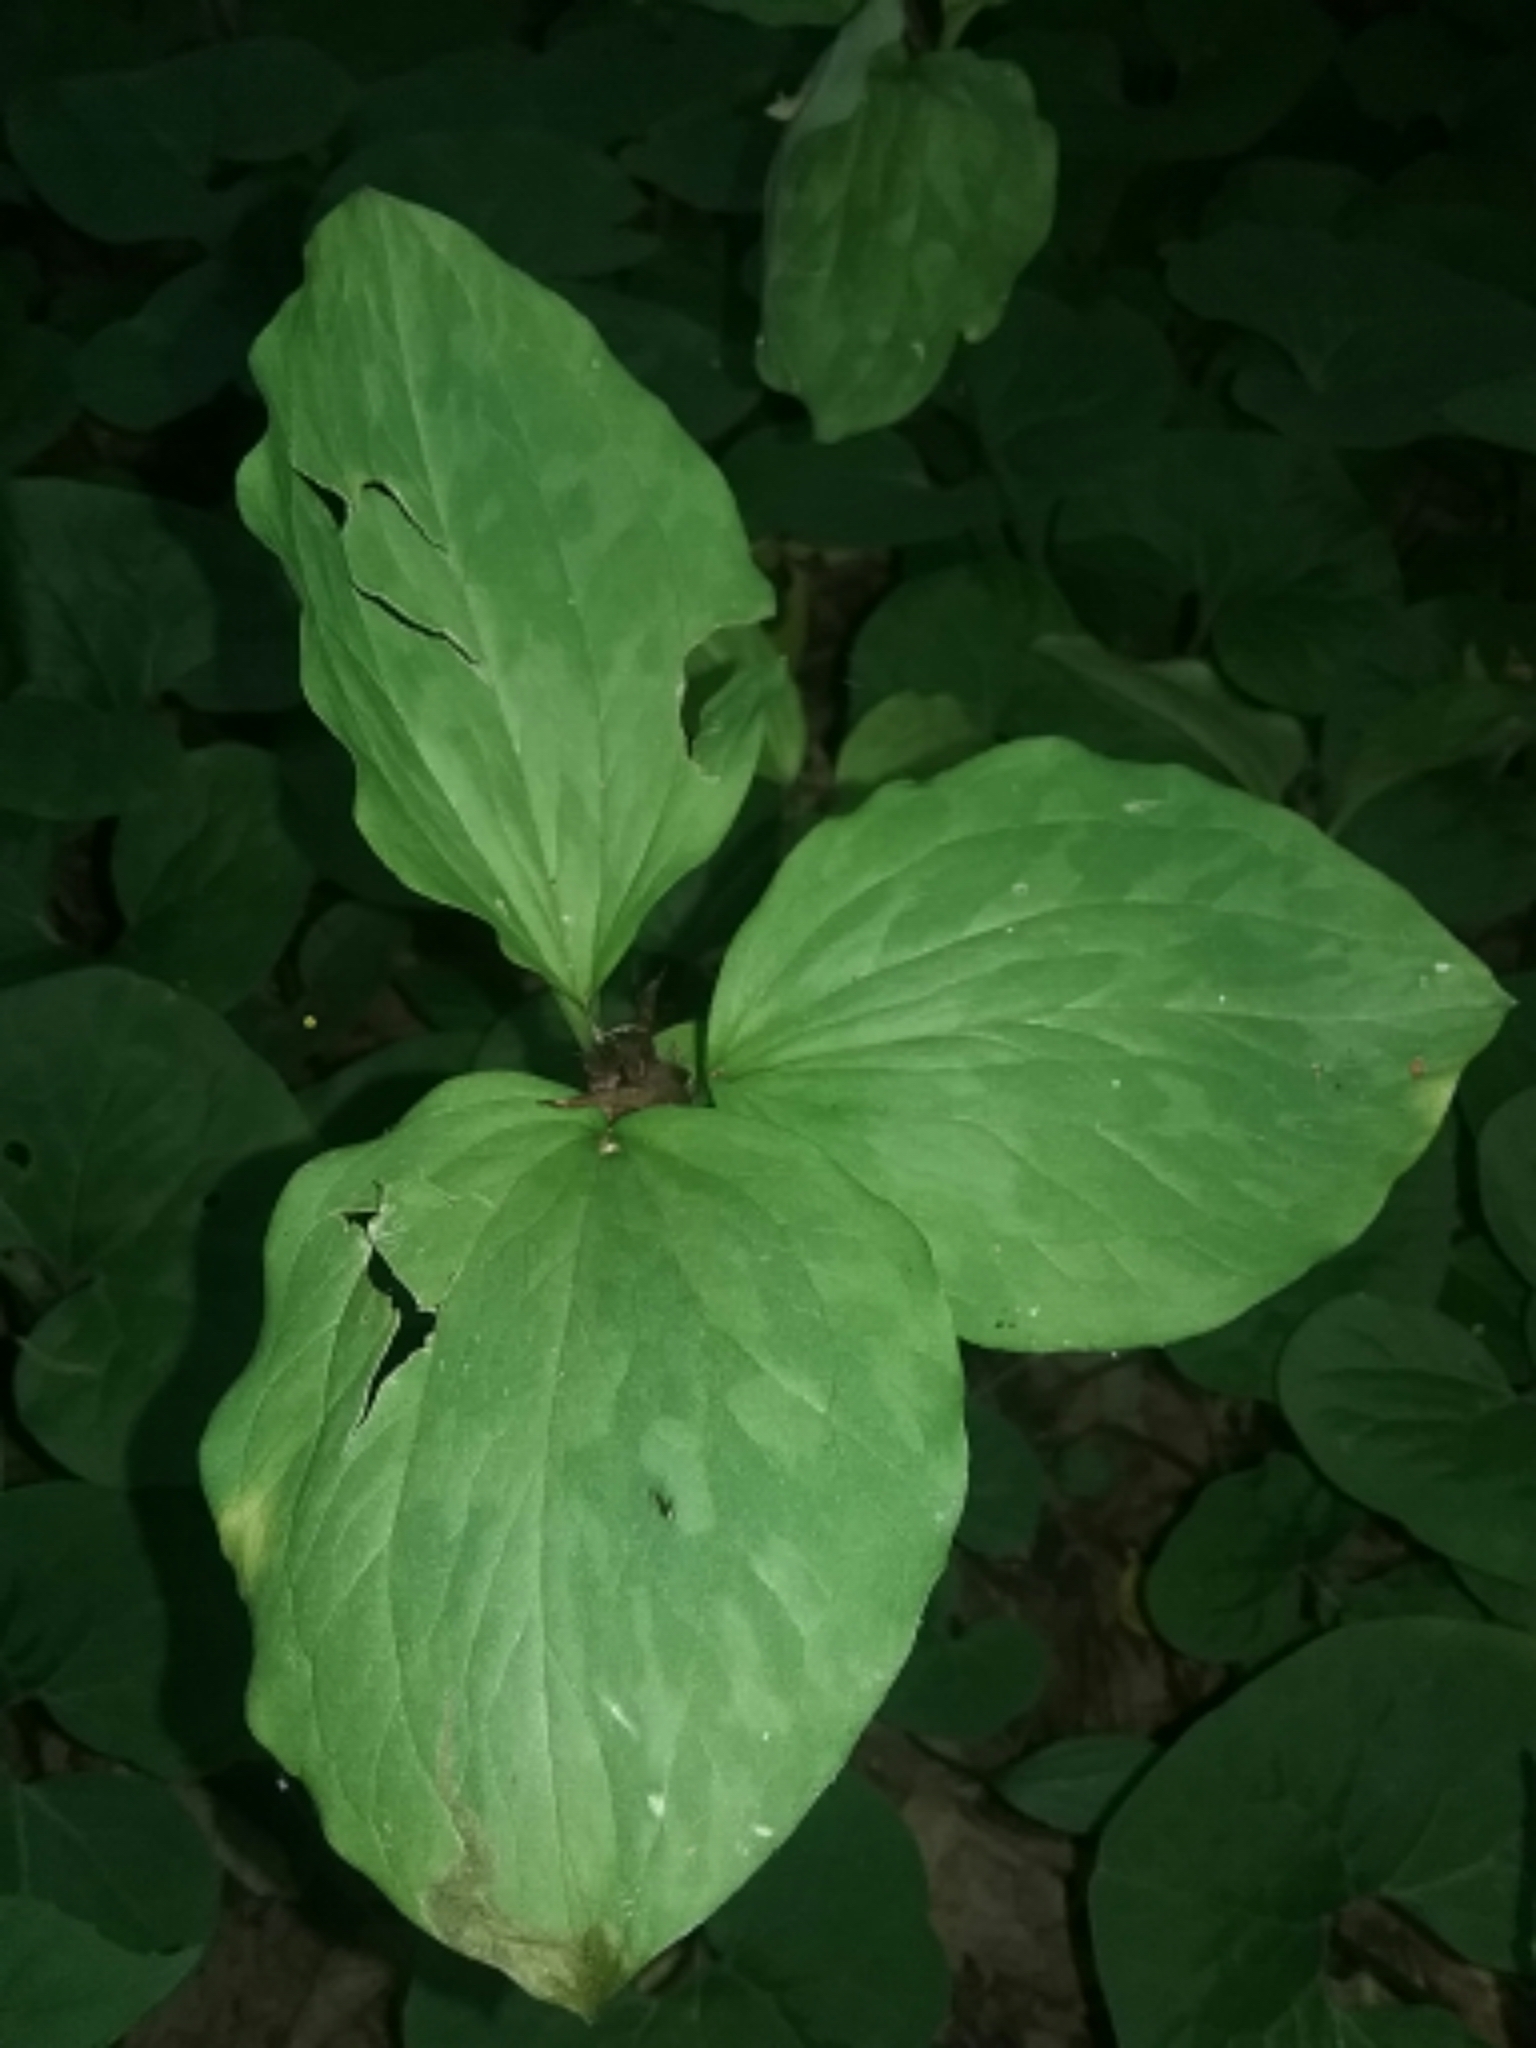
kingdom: Plantae
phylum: Tracheophyta
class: Liliopsida
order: Liliales
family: Melanthiaceae
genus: Trillium
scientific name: Trillium recurvatum
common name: Bloody butcher
